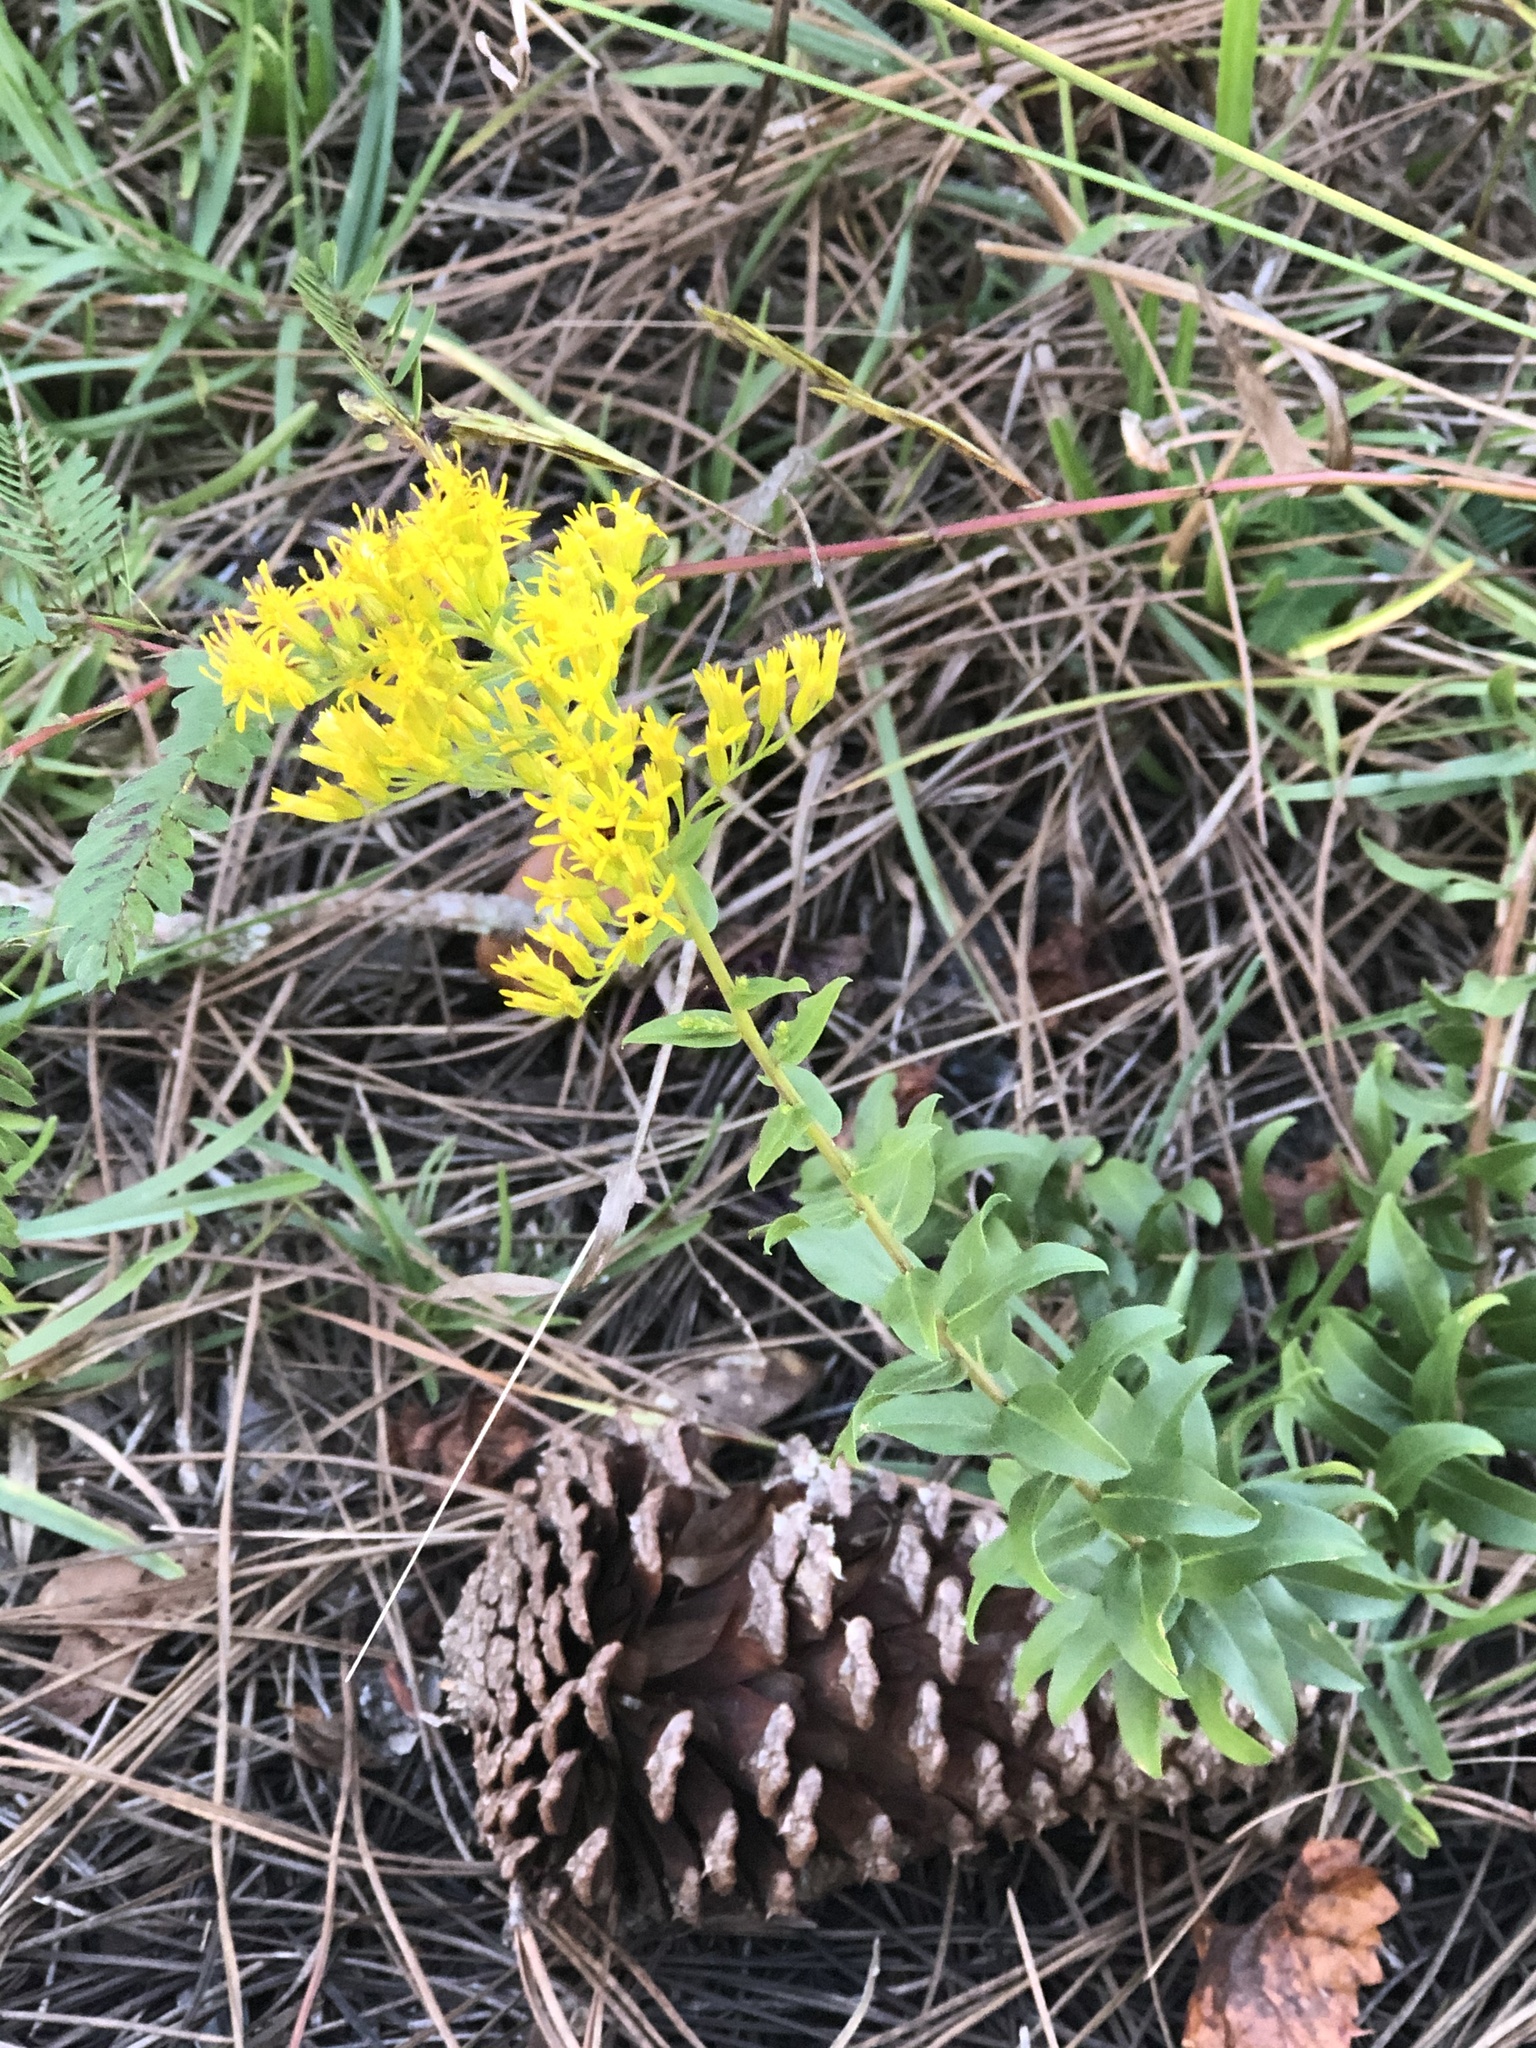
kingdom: Plantae
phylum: Tracheophyta
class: Magnoliopsida
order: Asterales
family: Asteraceae
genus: Solidago
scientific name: Solidago chapmanii
